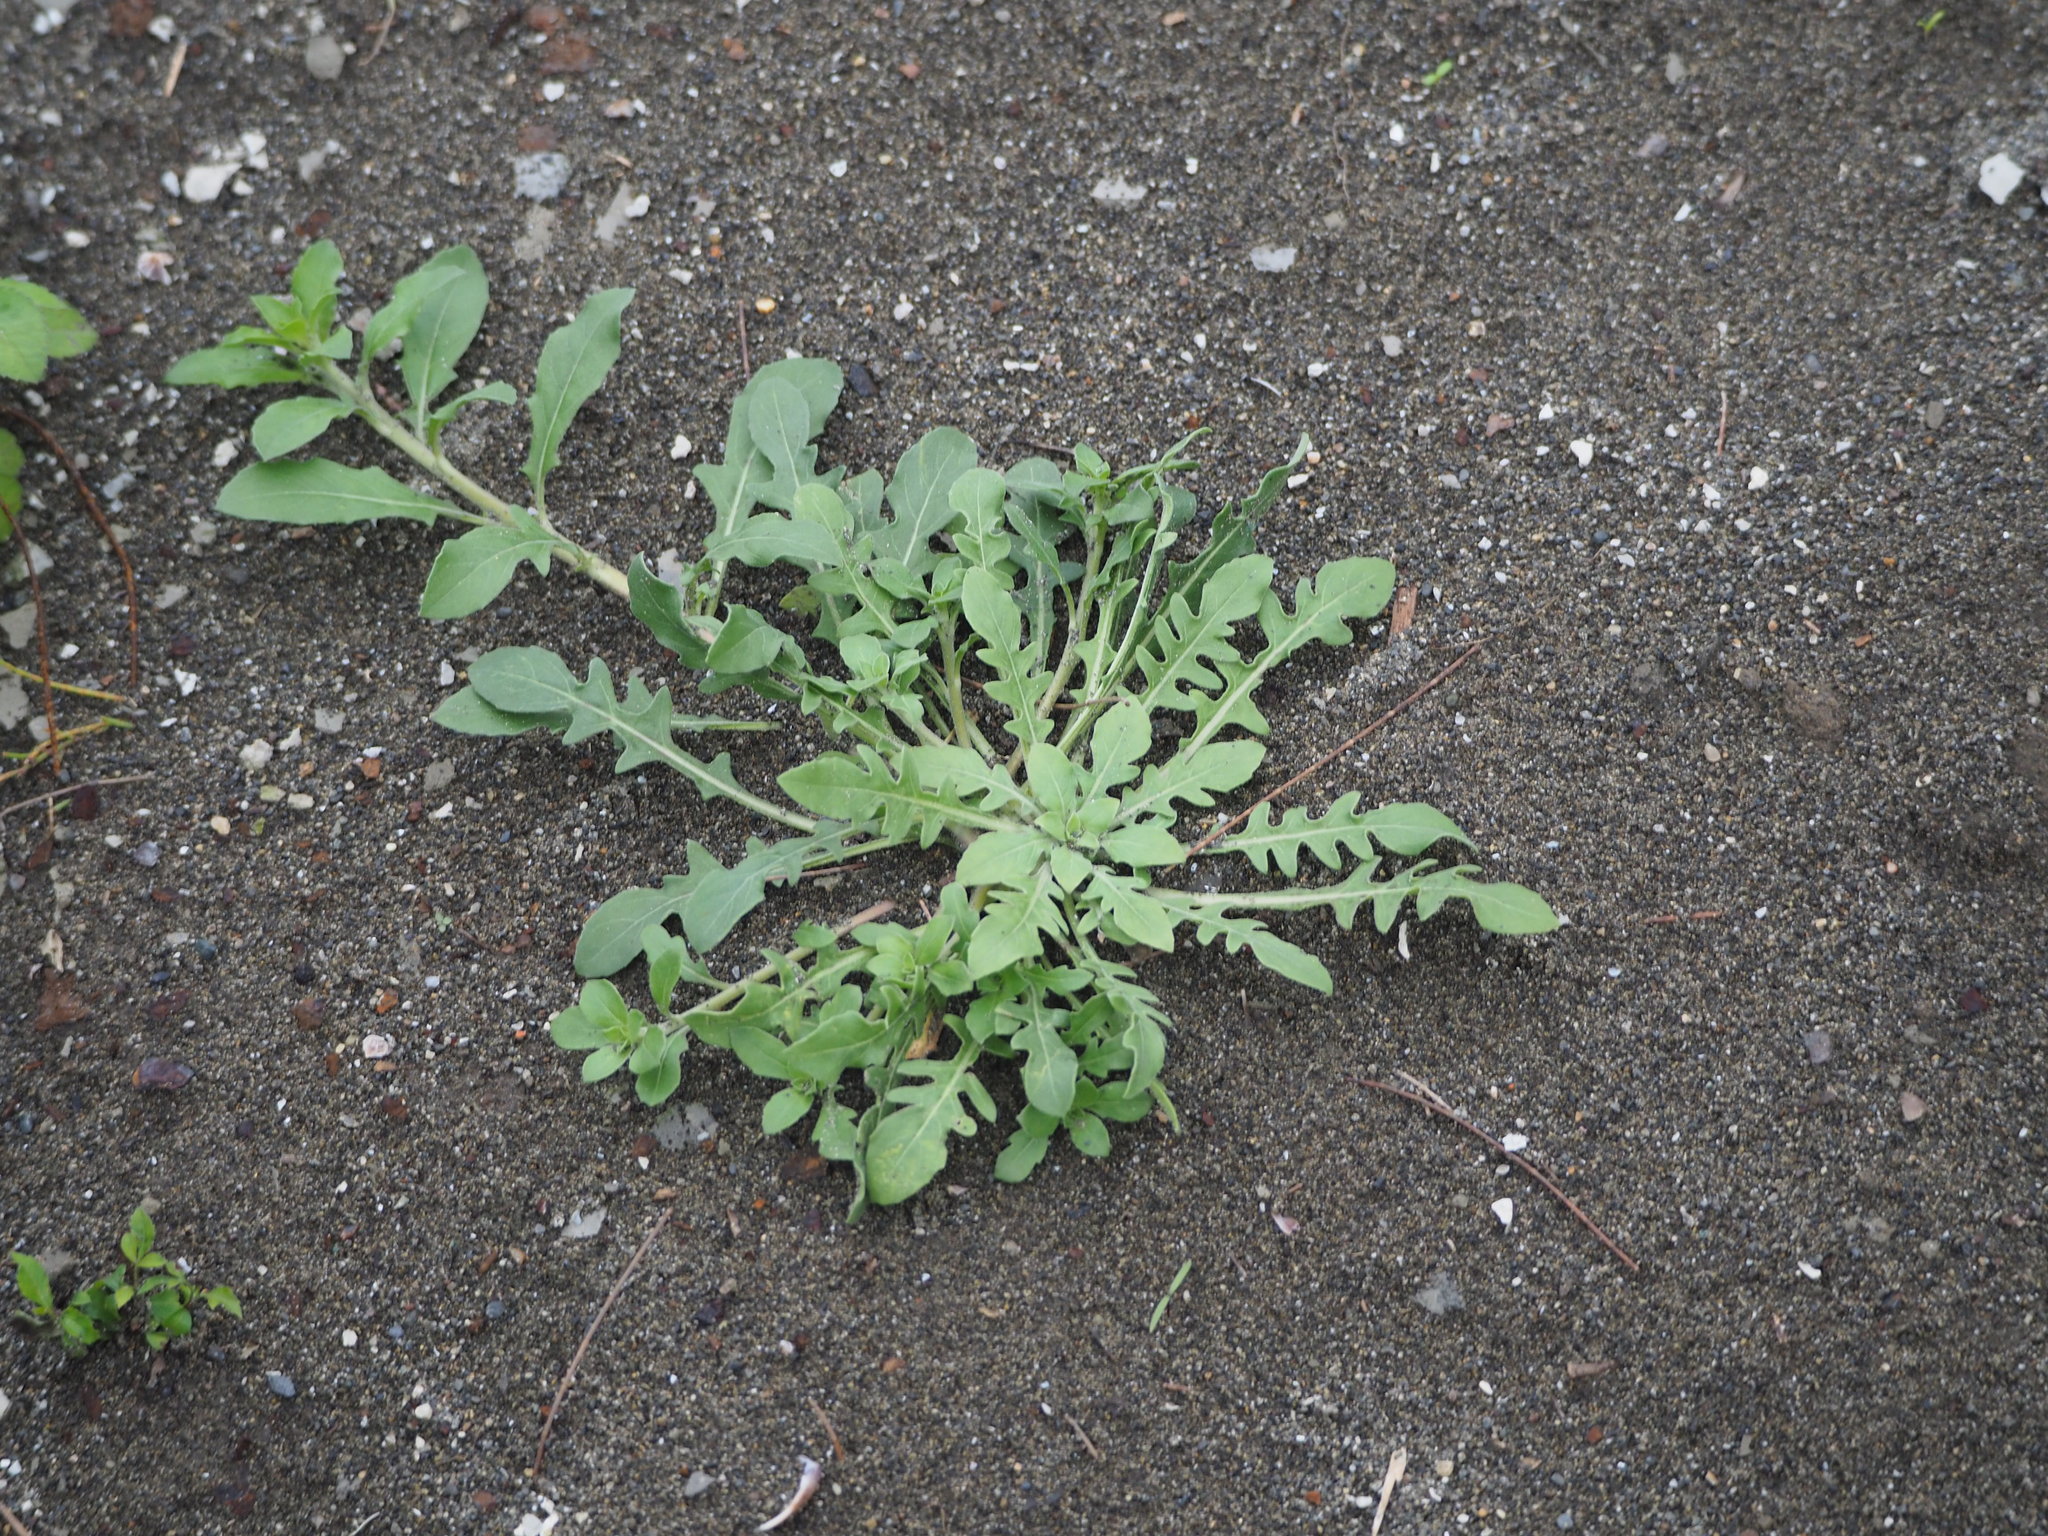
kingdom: Plantae
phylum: Tracheophyta
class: Magnoliopsida
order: Myrtales
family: Onagraceae
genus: Oenothera
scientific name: Oenothera laciniata
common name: Cut-leaved evening-primrose
